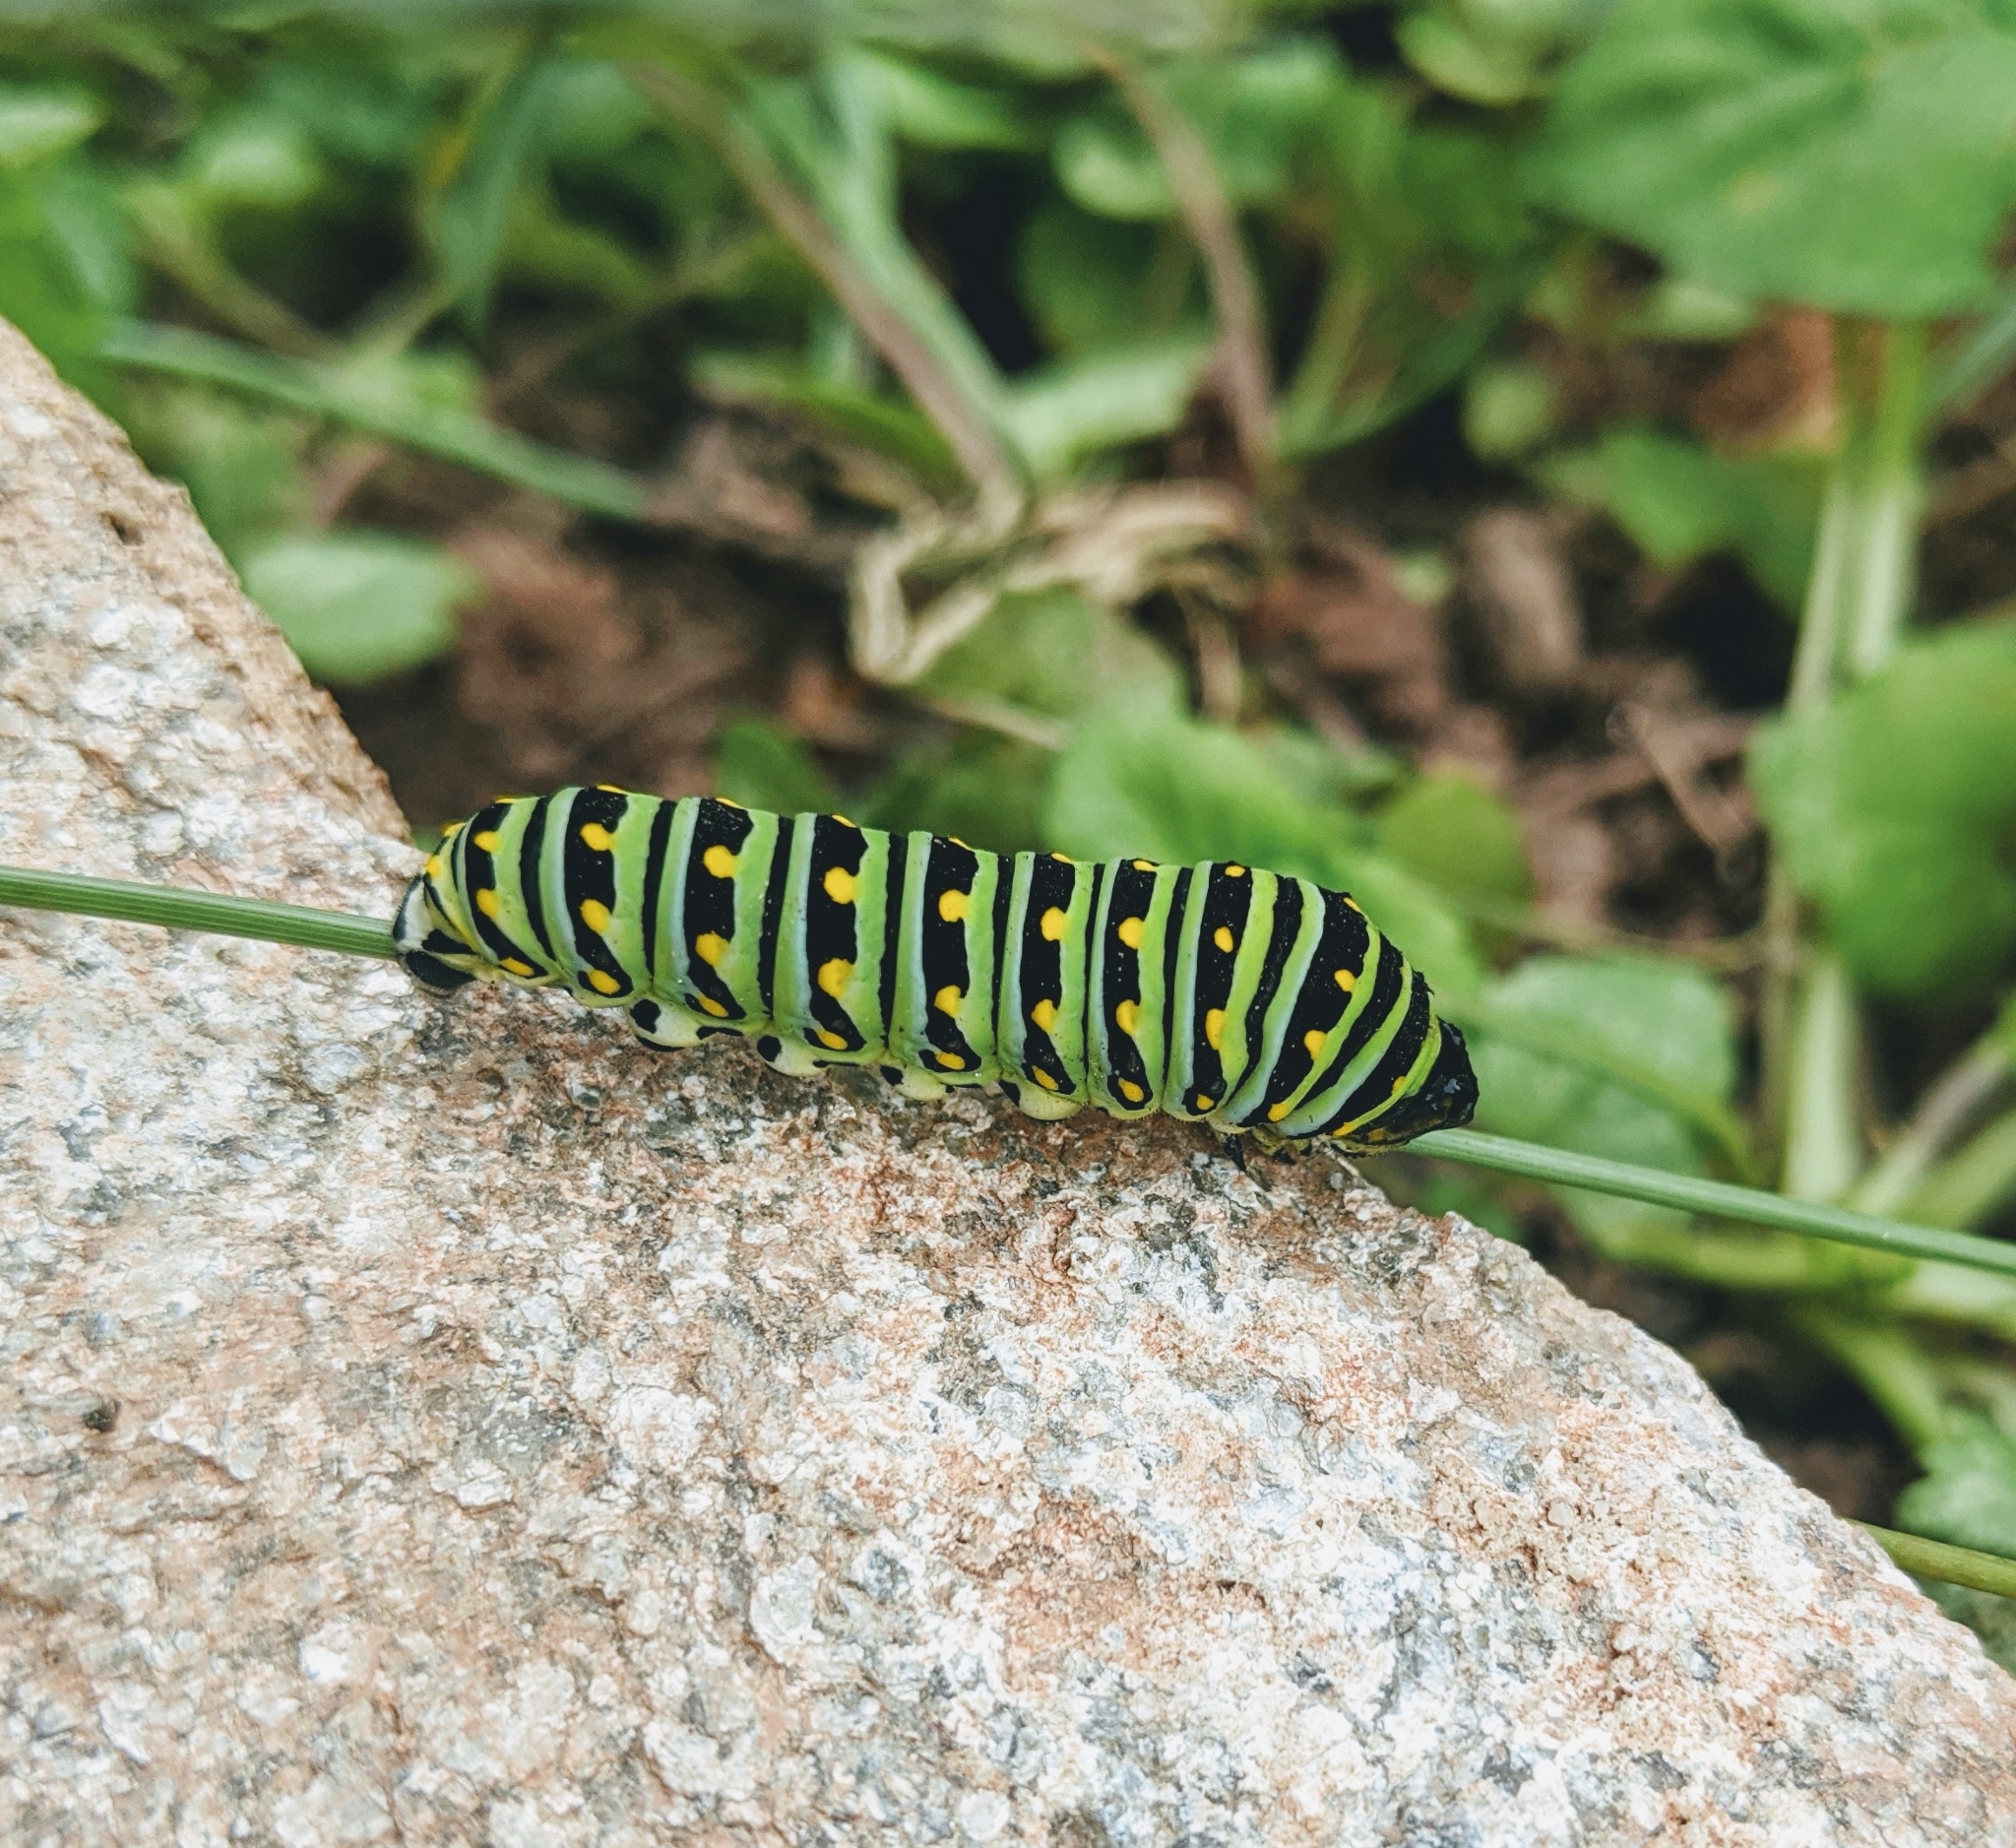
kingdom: Animalia
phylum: Arthropoda
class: Insecta
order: Lepidoptera
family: Papilionidae
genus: Papilio
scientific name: Papilio polyxenes
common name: Black swallowtail
